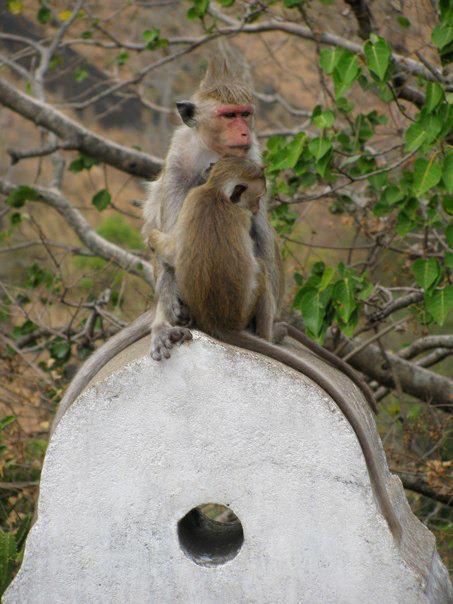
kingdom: Animalia
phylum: Chordata
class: Mammalia
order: Primates
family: Cercopithecidae
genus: Macaca
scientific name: Macaca sinica
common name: Toque macaque
